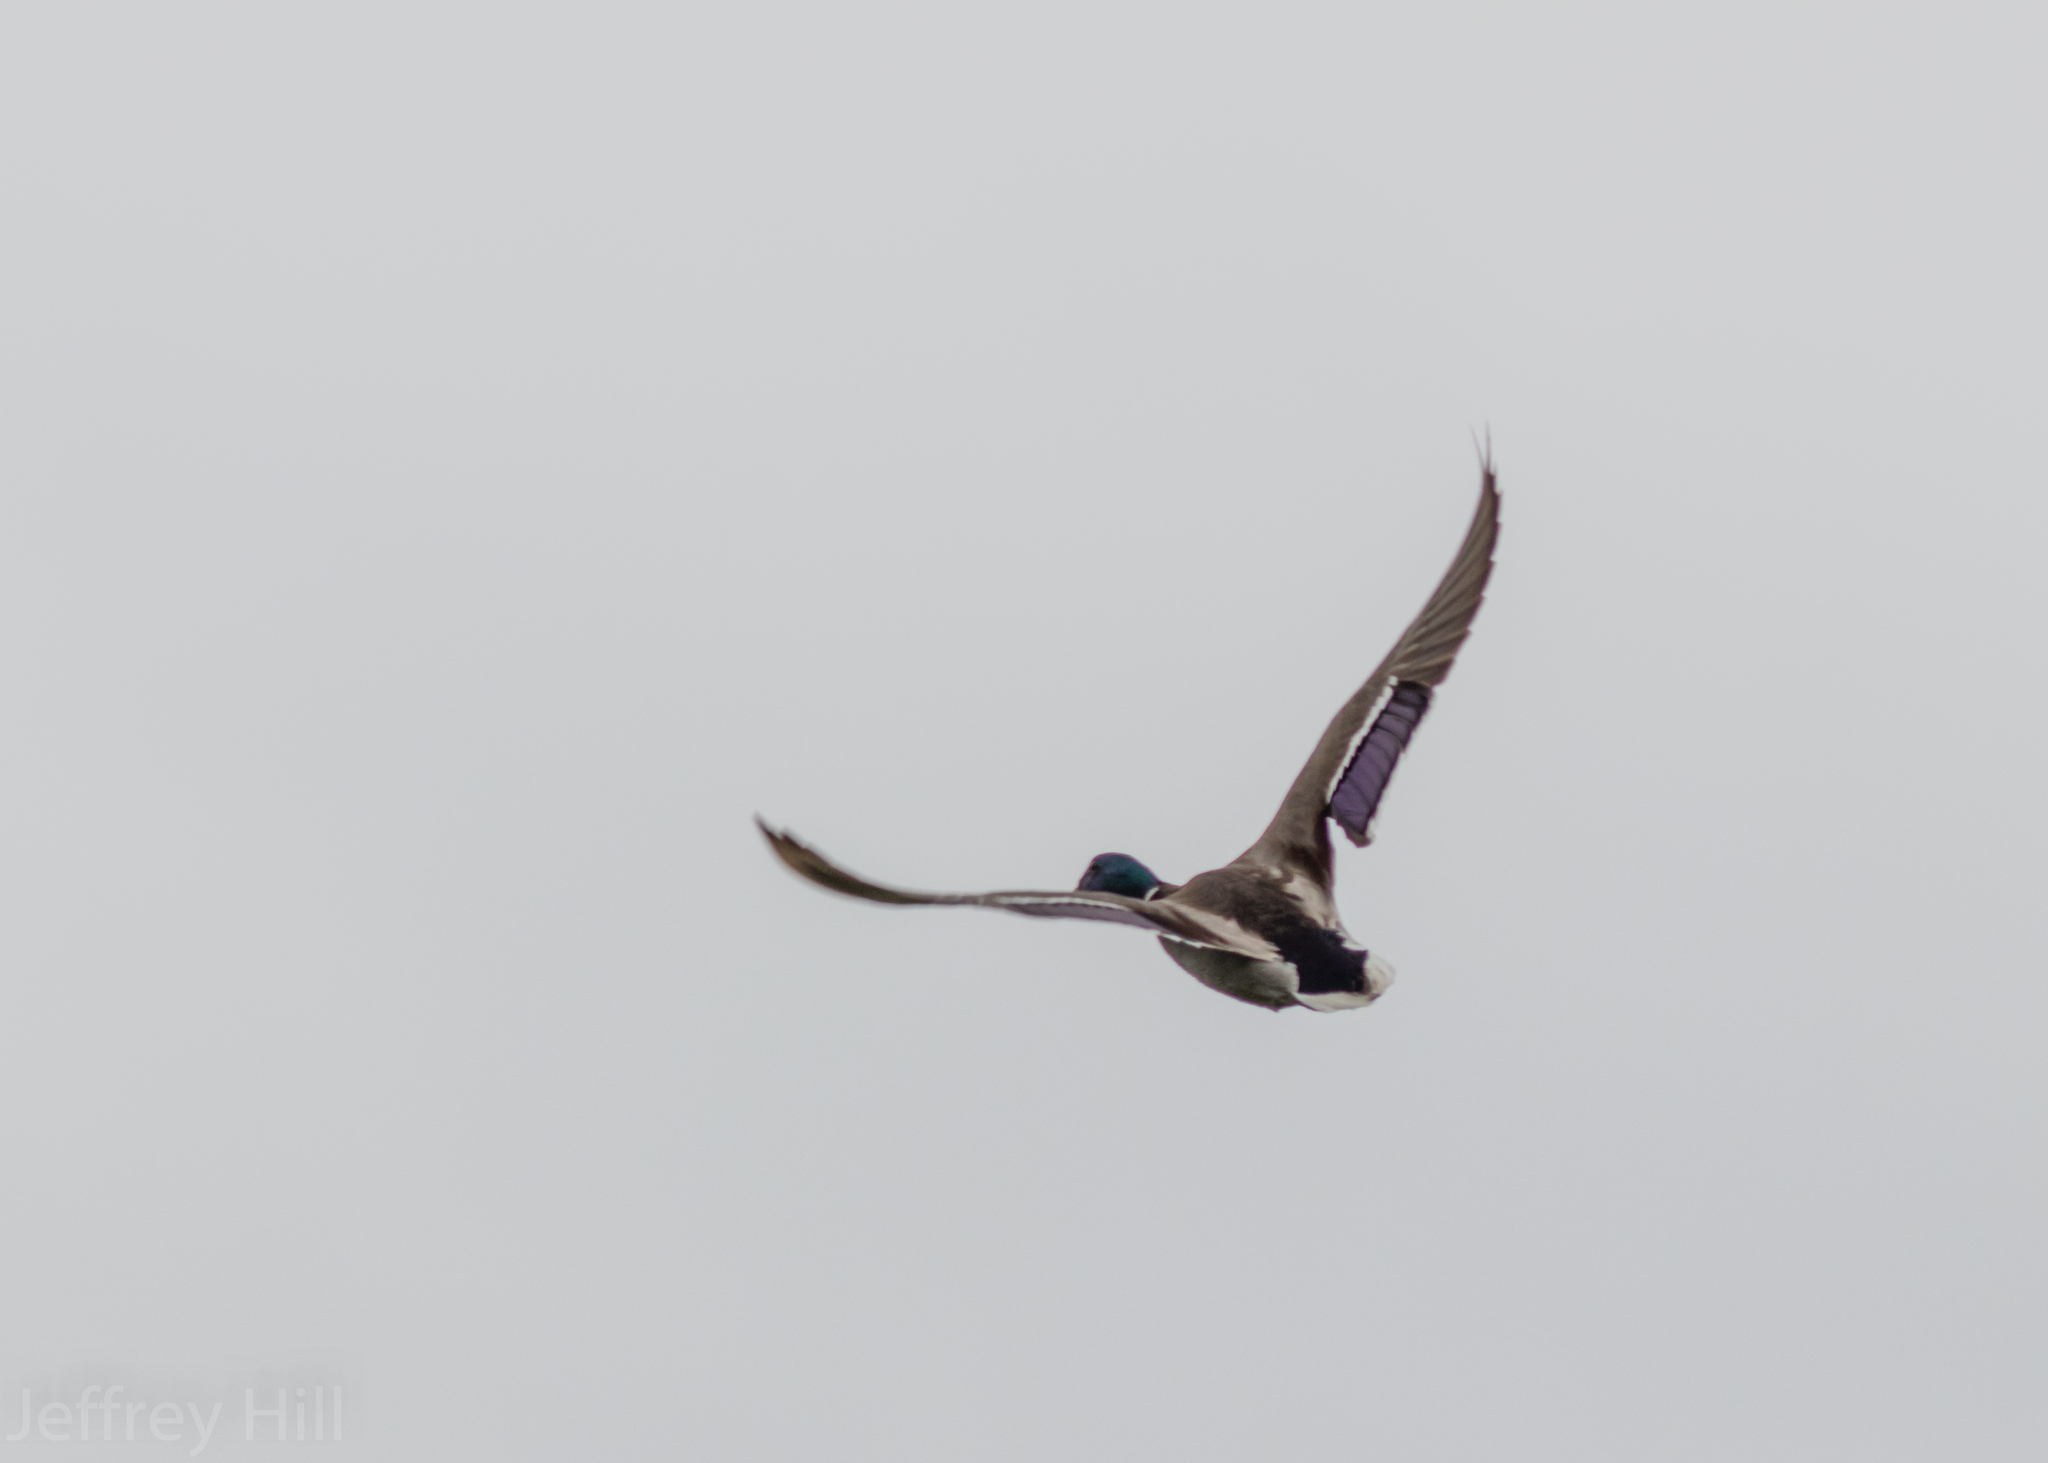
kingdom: Animalia
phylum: Chordata
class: Aves
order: Anseriformes
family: Anatidae
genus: Anas
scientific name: Anas platyrhynchos
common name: Mallard
